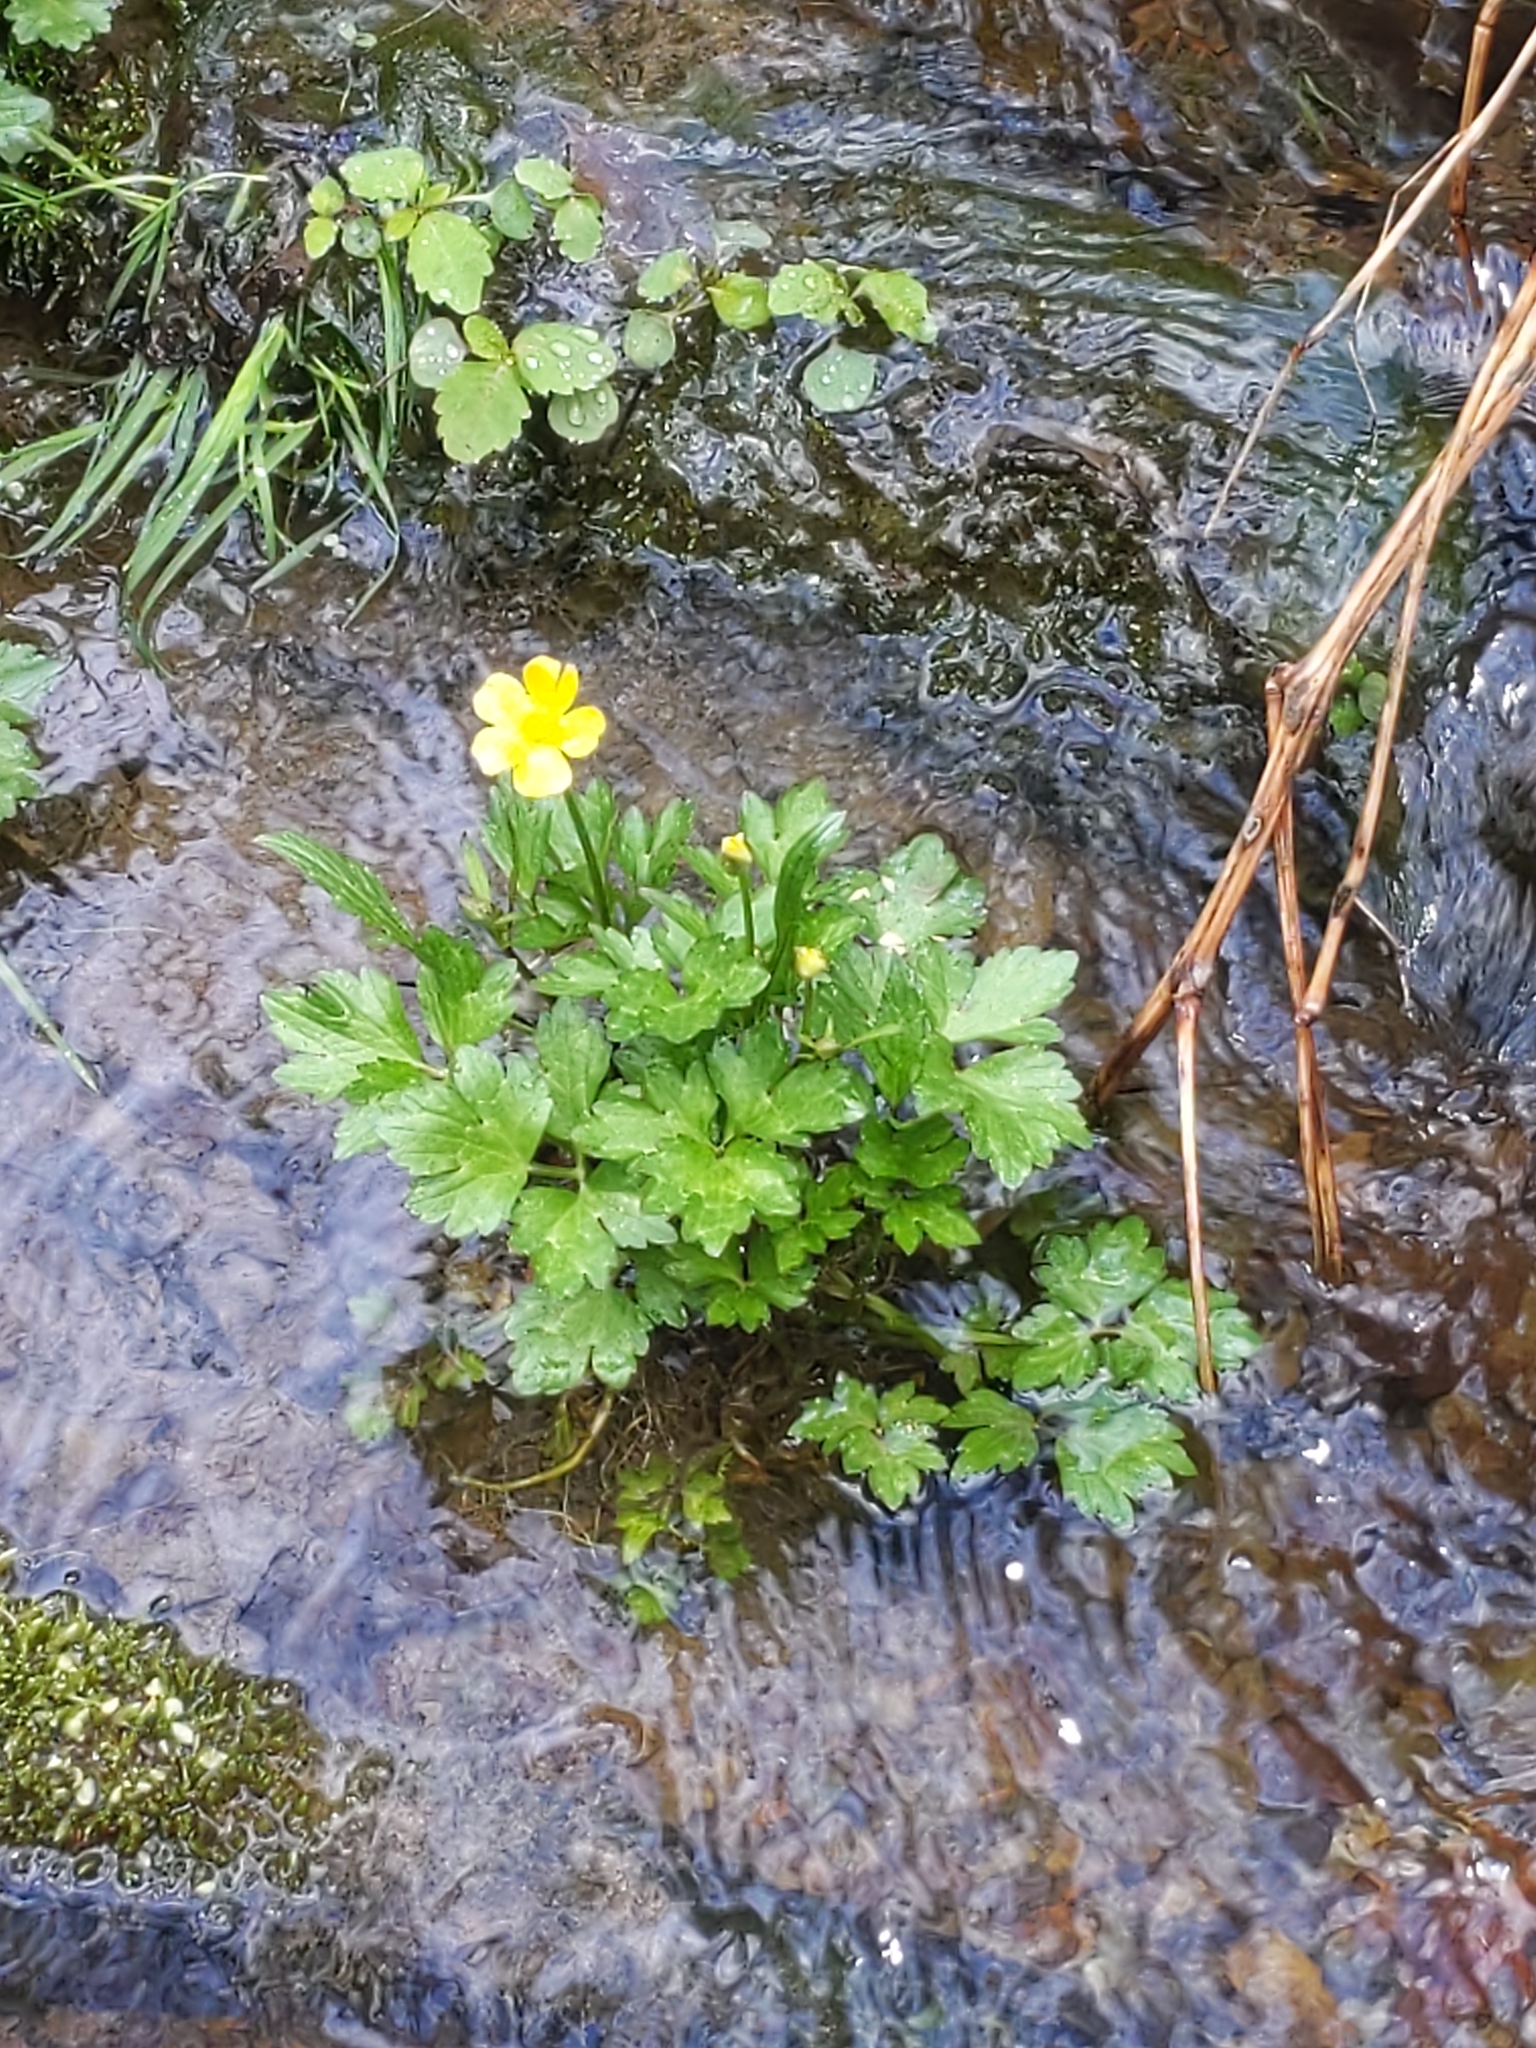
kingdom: Plantae
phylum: Tracheophyta
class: Magnoliopsida
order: Ranunculales
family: Ranunculaceae
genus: Ranunculus
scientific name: Ranunculus repens
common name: Creeping buttercup
